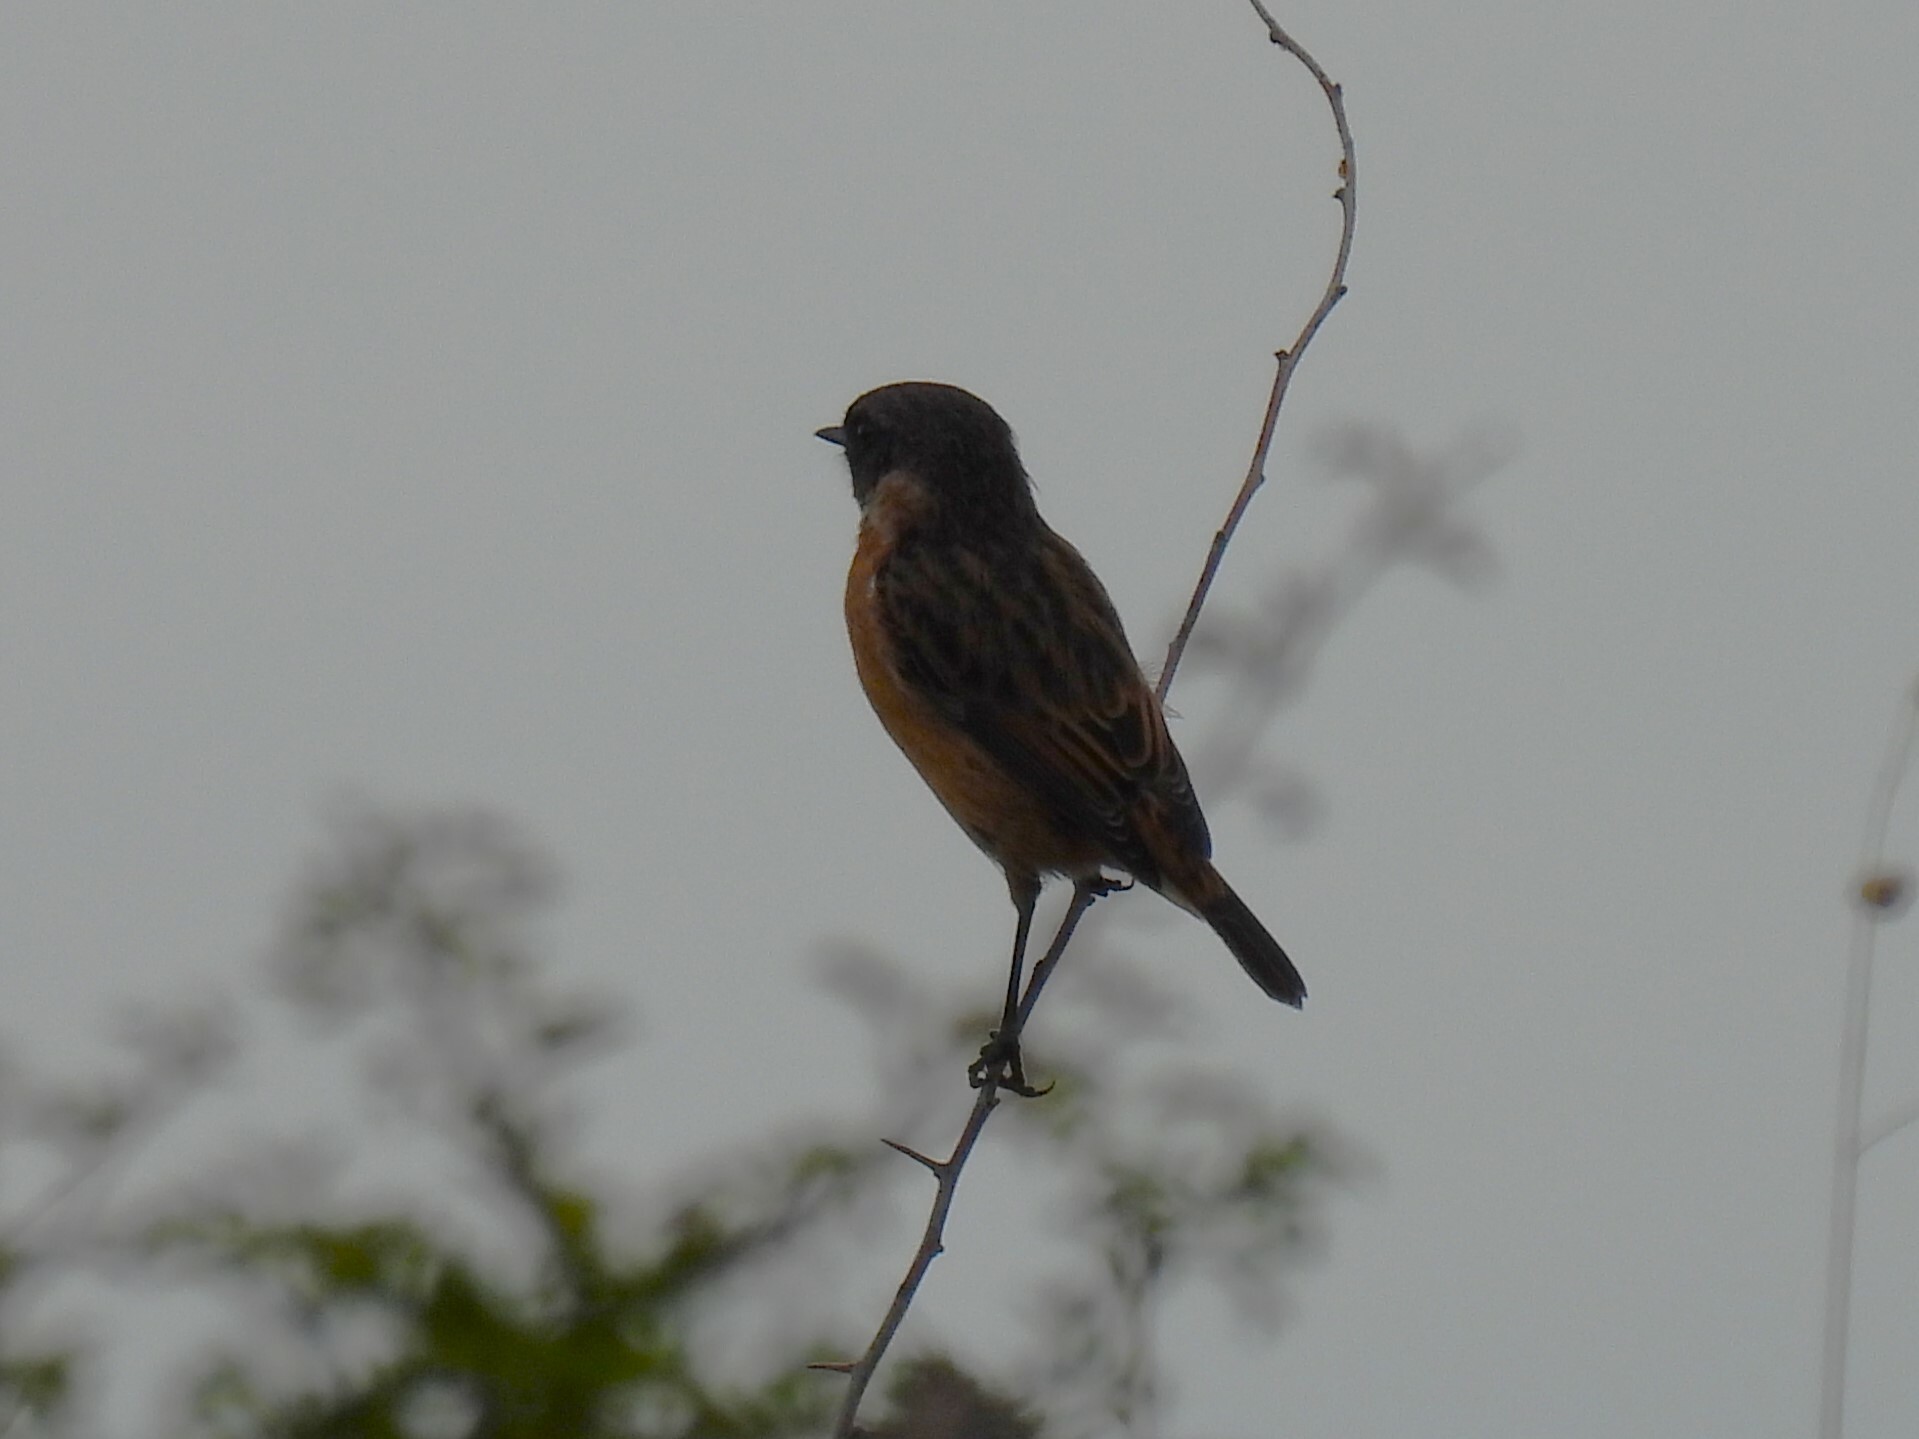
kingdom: Animalia
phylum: Chordata
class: Aves
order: Passeriformes
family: Muscicapidae
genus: Saxicola
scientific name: Saxicola rubicola
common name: European stonechat
